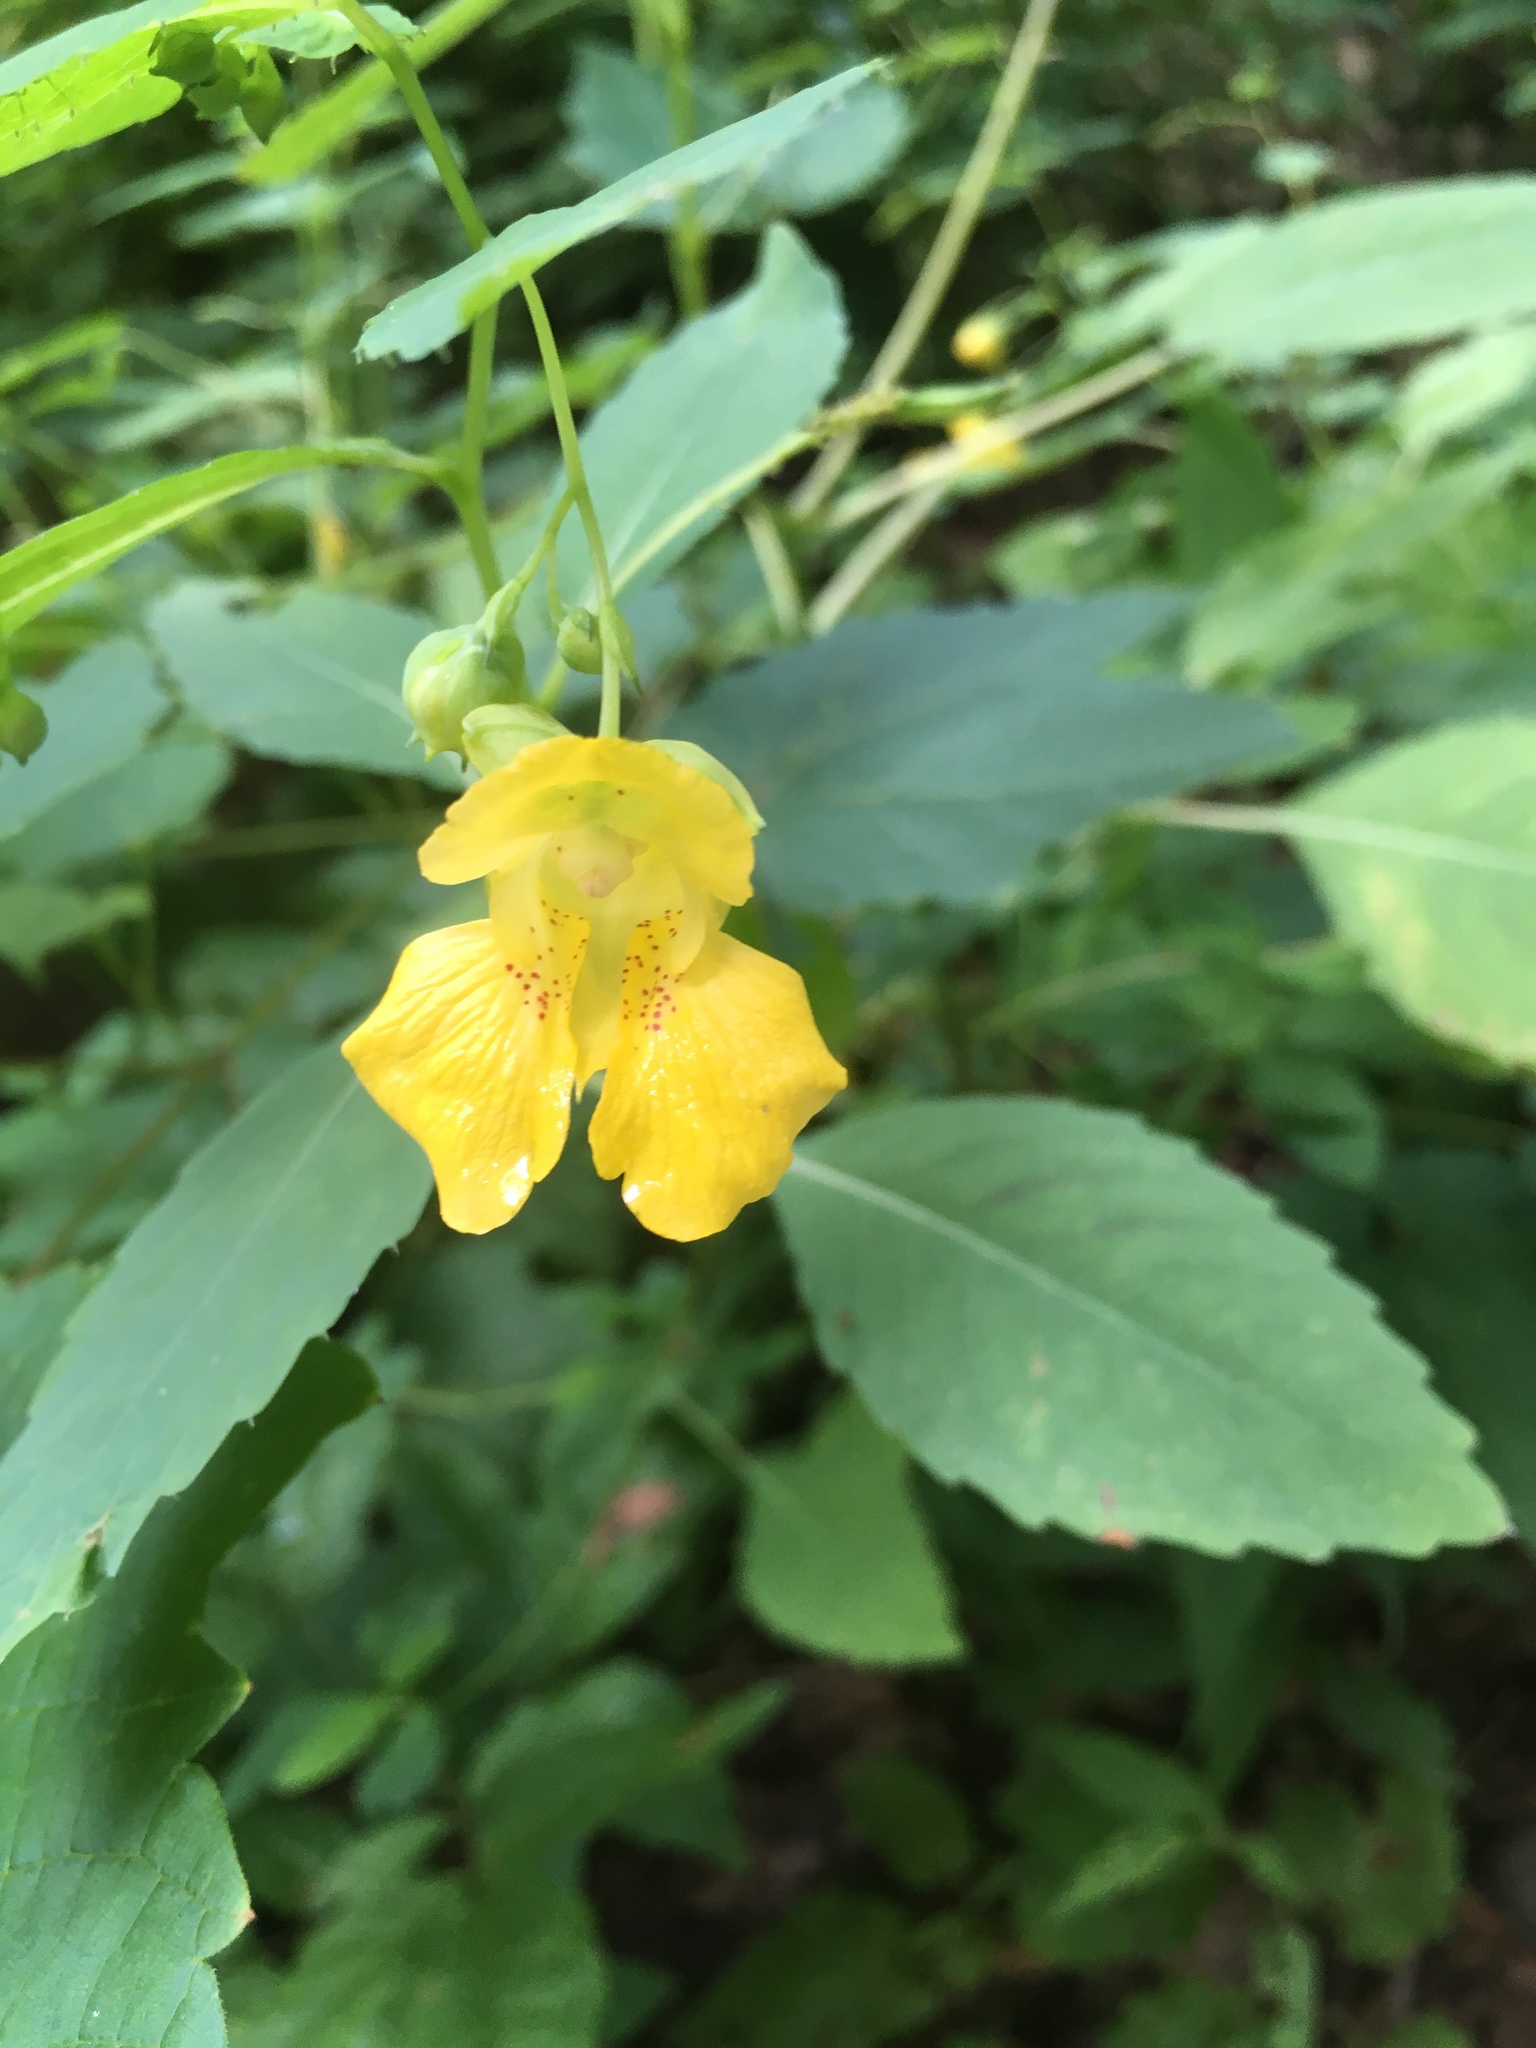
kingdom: Plantae
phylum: Tracheophyta
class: Magnoliopsida
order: Ericales
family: Balsaminaceae
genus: Impatiens
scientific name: Impatiens pallida
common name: Pale snapweed
